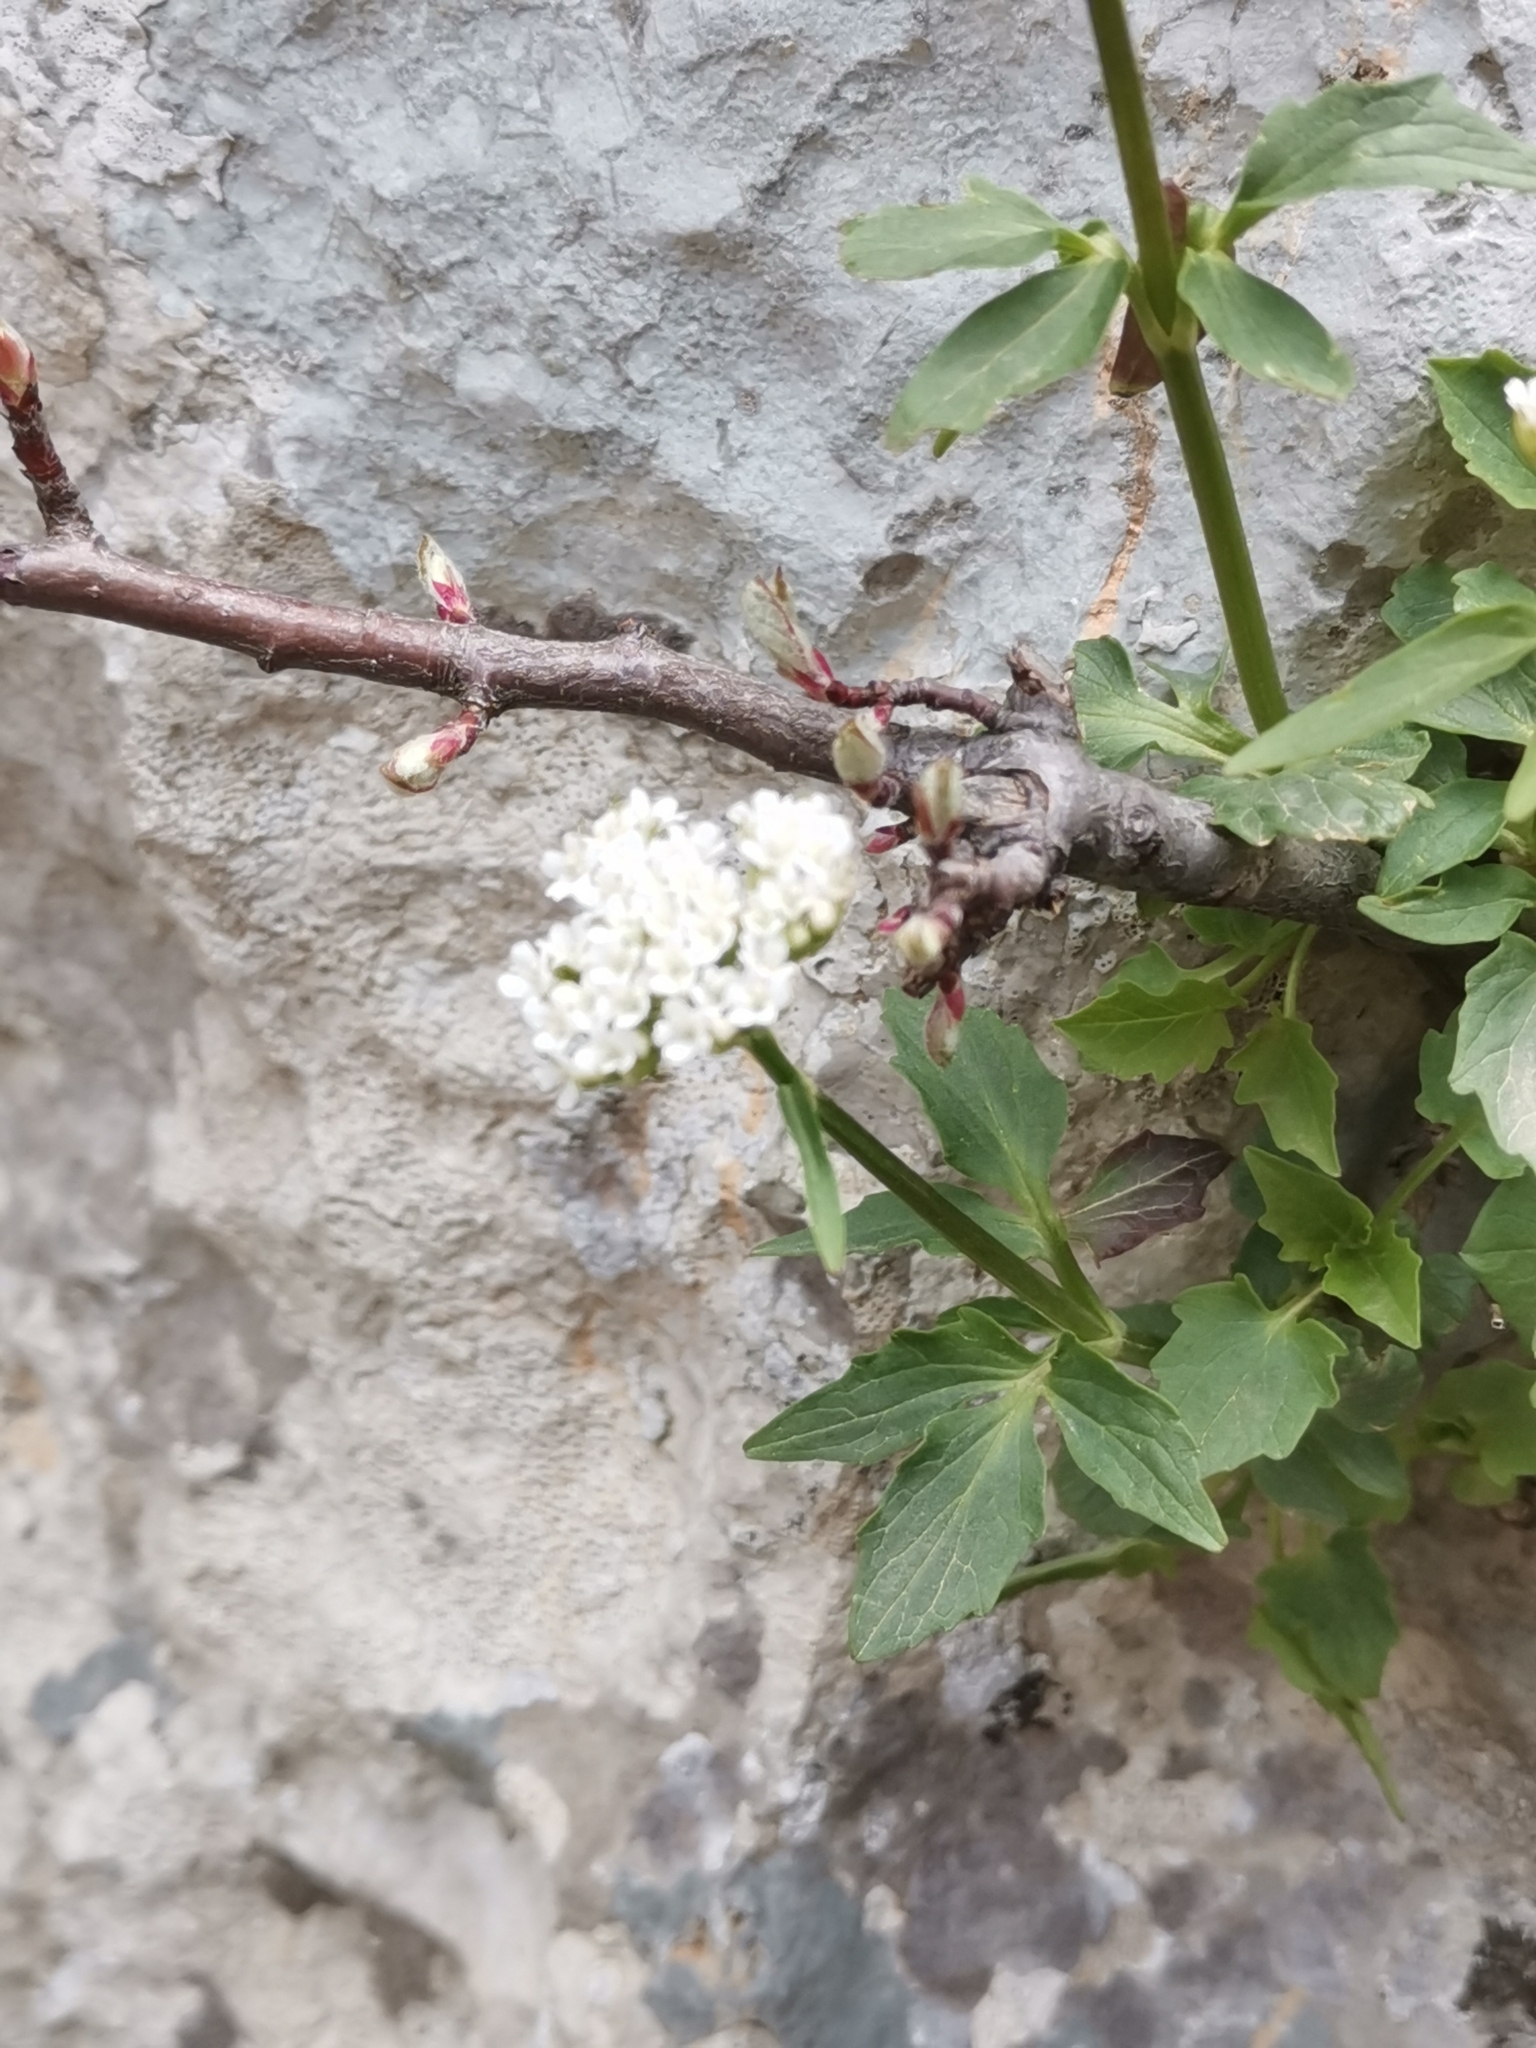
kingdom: Plantae
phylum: Tracheophyta
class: Magnoliopsida
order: Dipsacales
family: Caprifoliaceae
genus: Valeriana
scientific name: Valeriana tripteris
